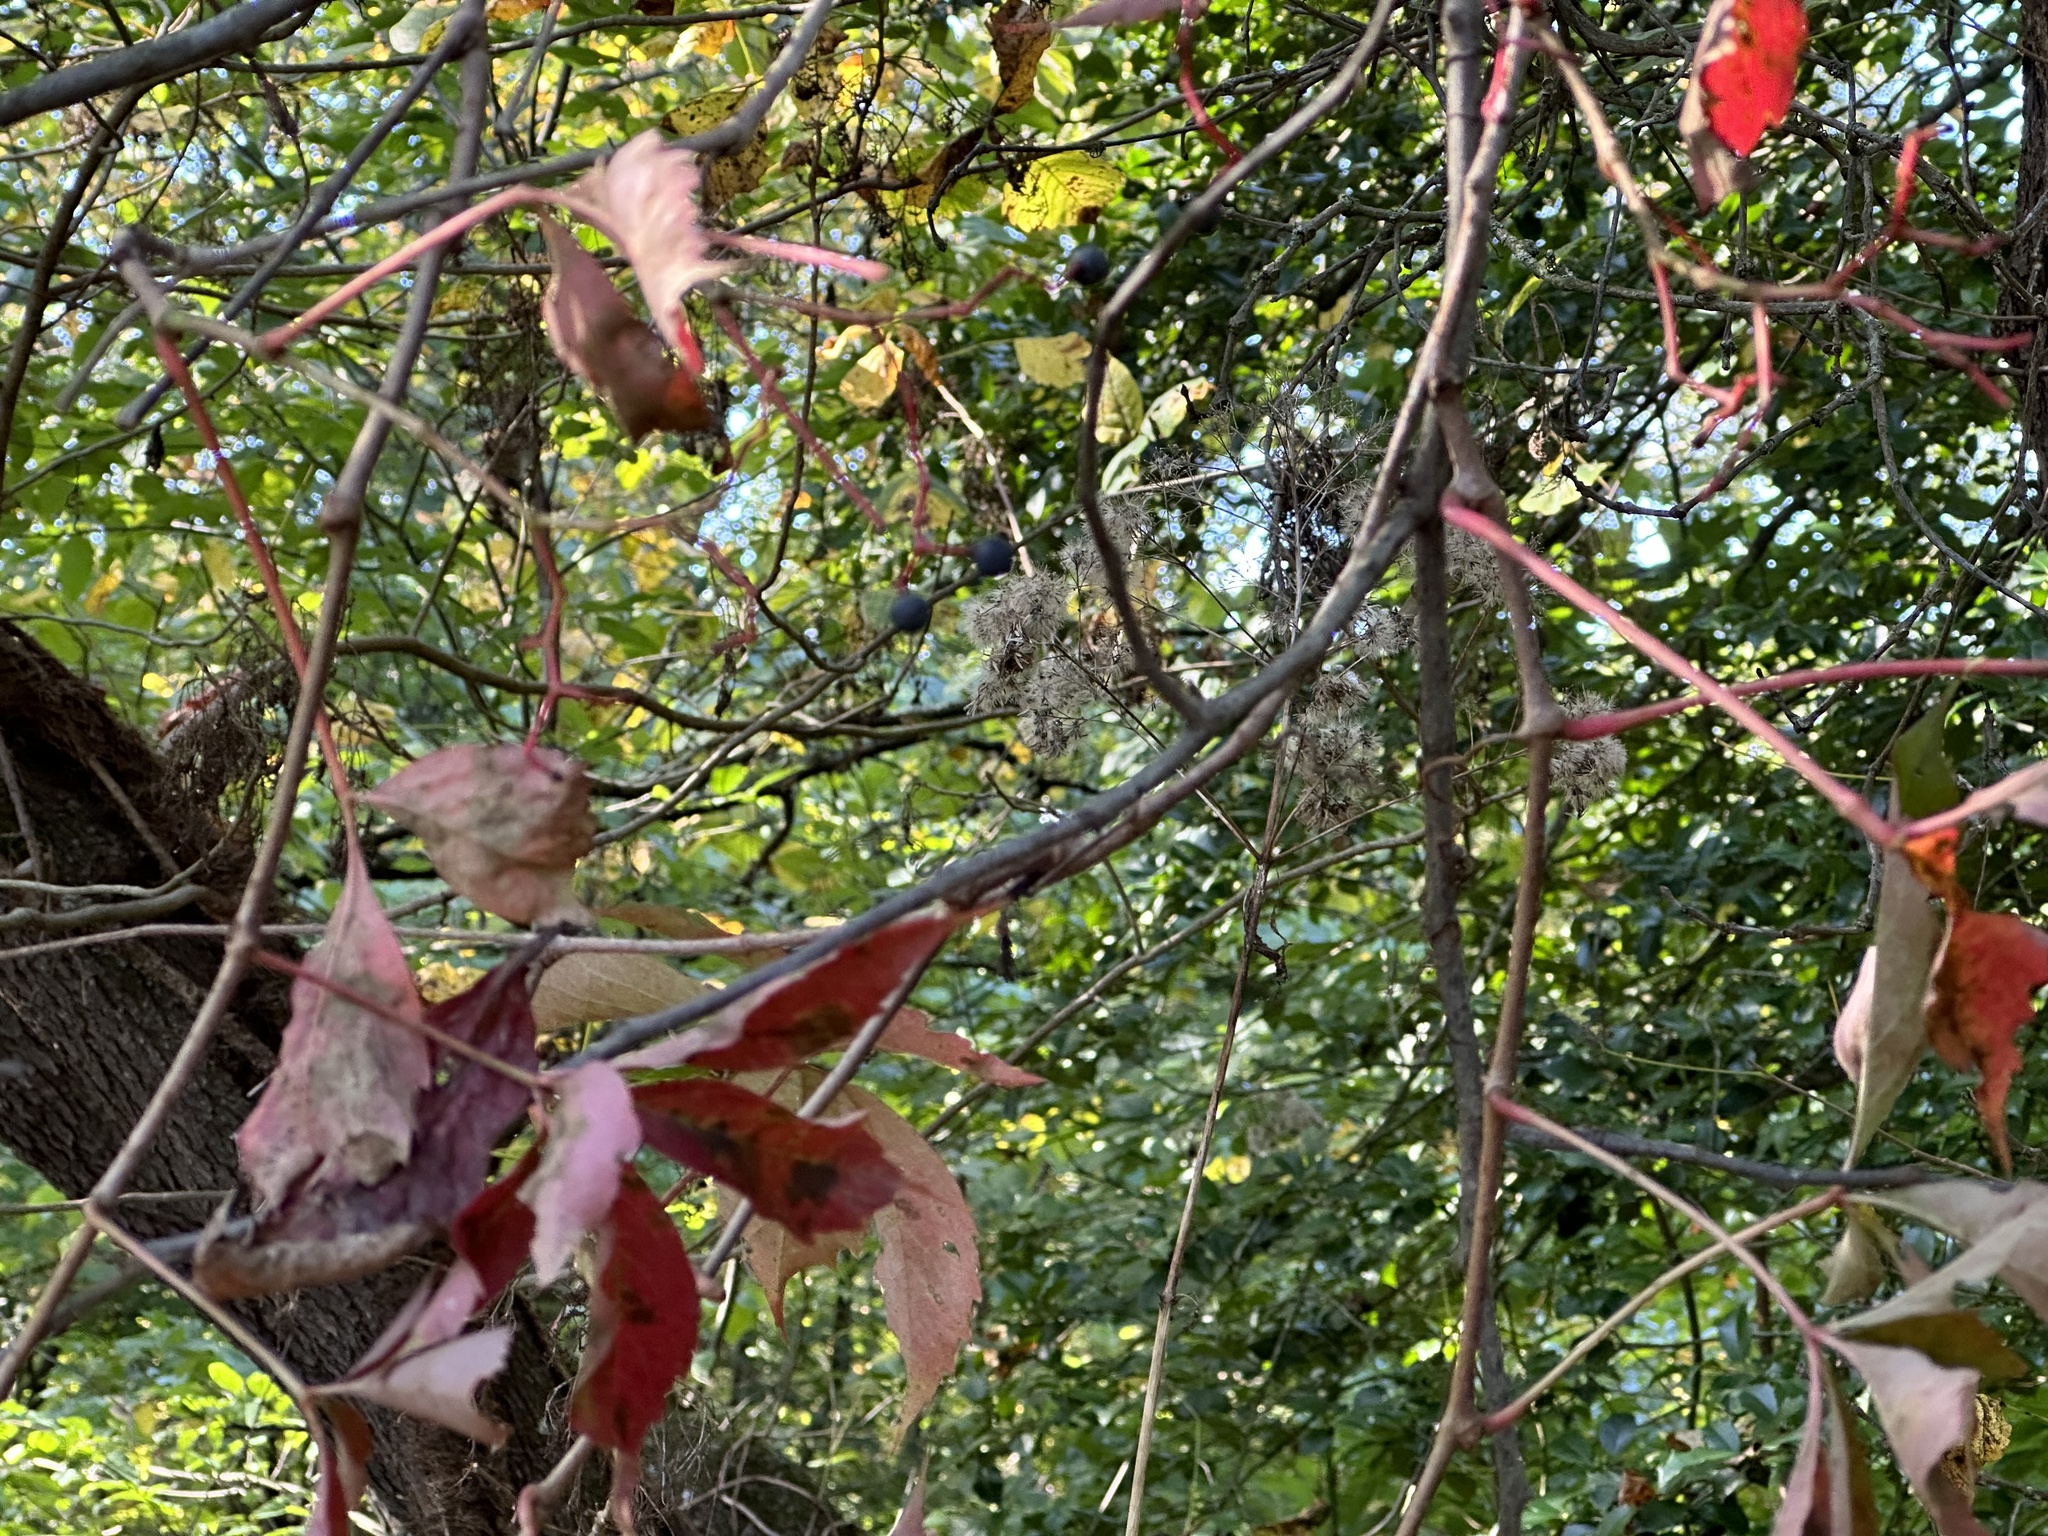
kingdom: Plantae
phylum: Tracheophyta
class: Magnoliopsida
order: Vitales
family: Vitaceae
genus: Parthenocissus
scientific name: Parthenocissus quinquefolia
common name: Virginia-creeper
